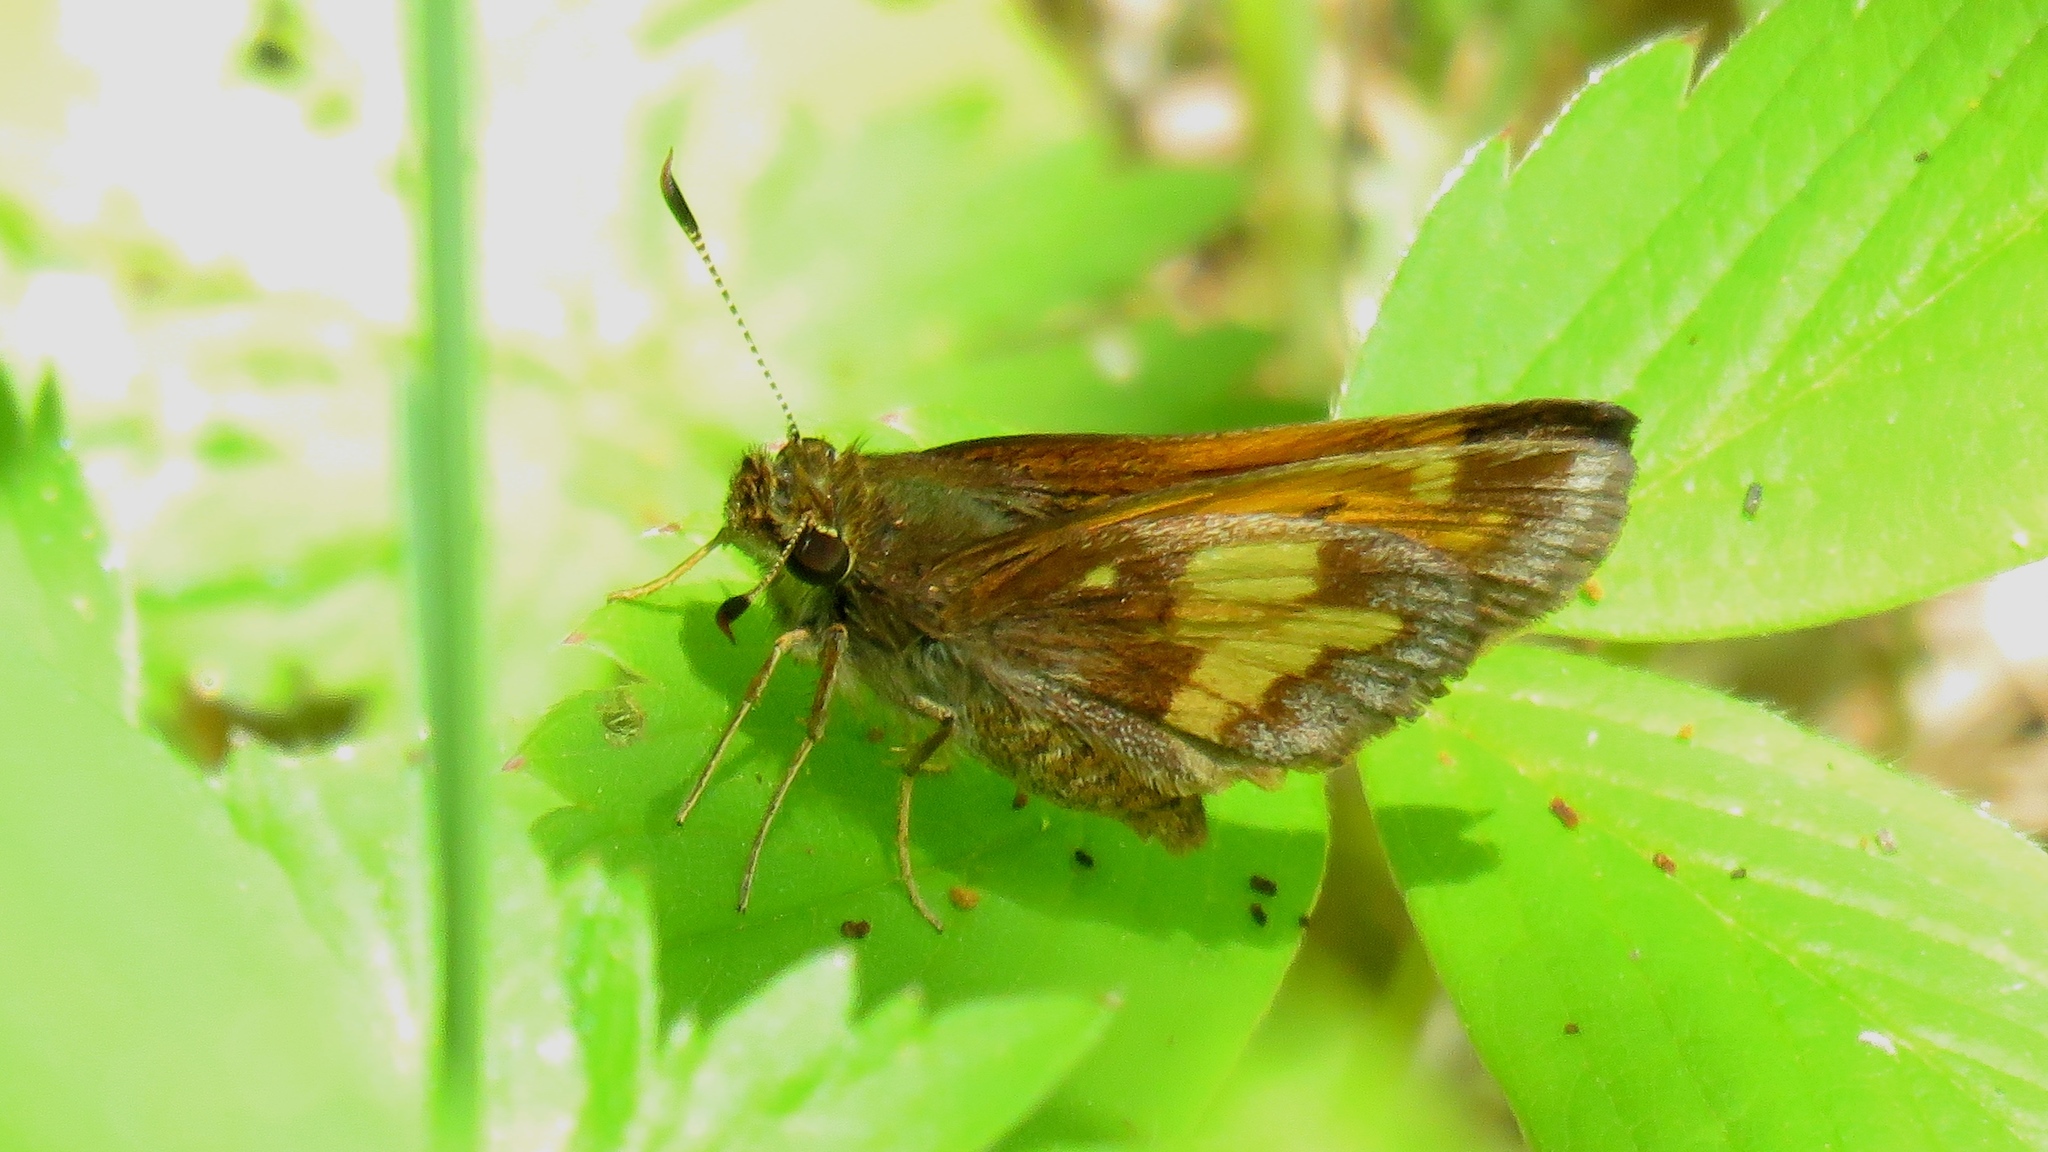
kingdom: Animalia
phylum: Arthropoda
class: Insecta
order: Lepidoptera
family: Hesperiidae
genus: Lon
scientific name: Lon hobomok
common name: Hobomok skipper
